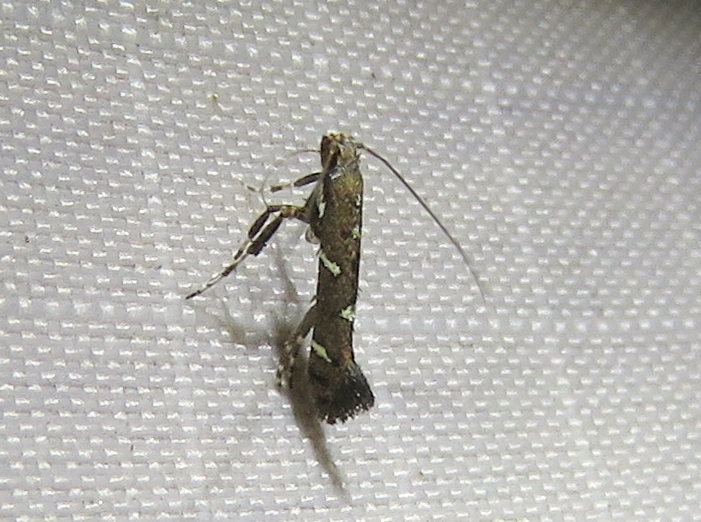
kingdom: Animalia
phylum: Arthropoda
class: Insecta
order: Lepidoptera
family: Gracillariidae
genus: Caloptilia
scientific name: Caloptilia triadicae
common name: Tallow leaf roller
